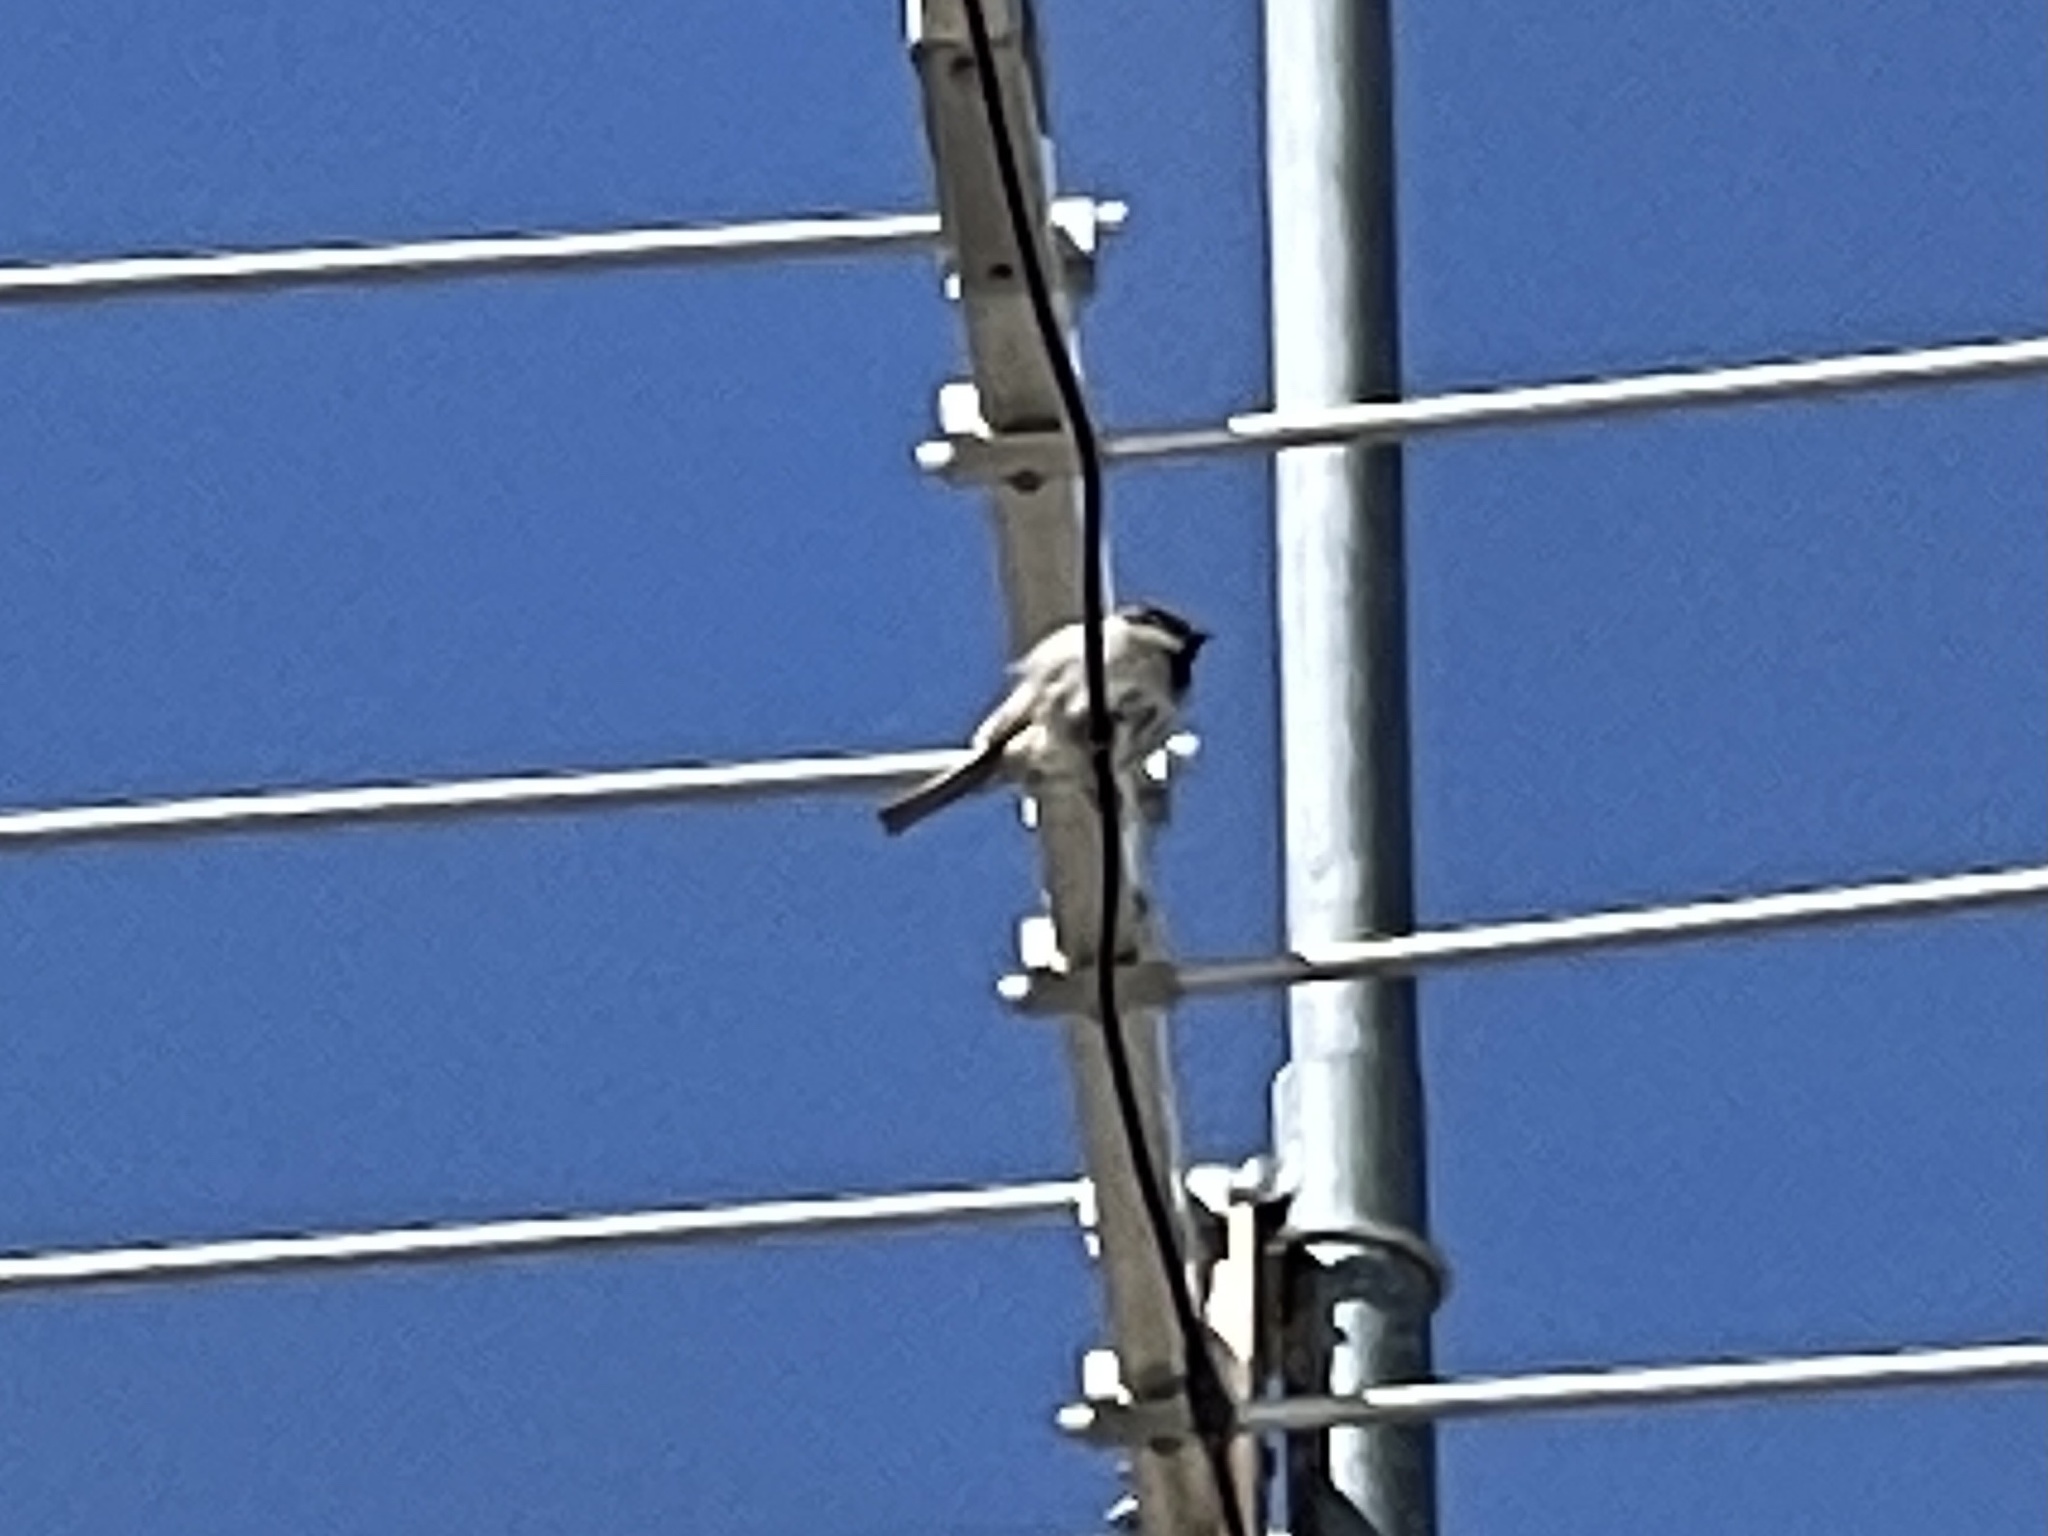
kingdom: Animalia
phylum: Chordata
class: Aves
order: Passeriformes
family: Passeridae
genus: Passer
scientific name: Passer domesticus
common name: House sparrow
